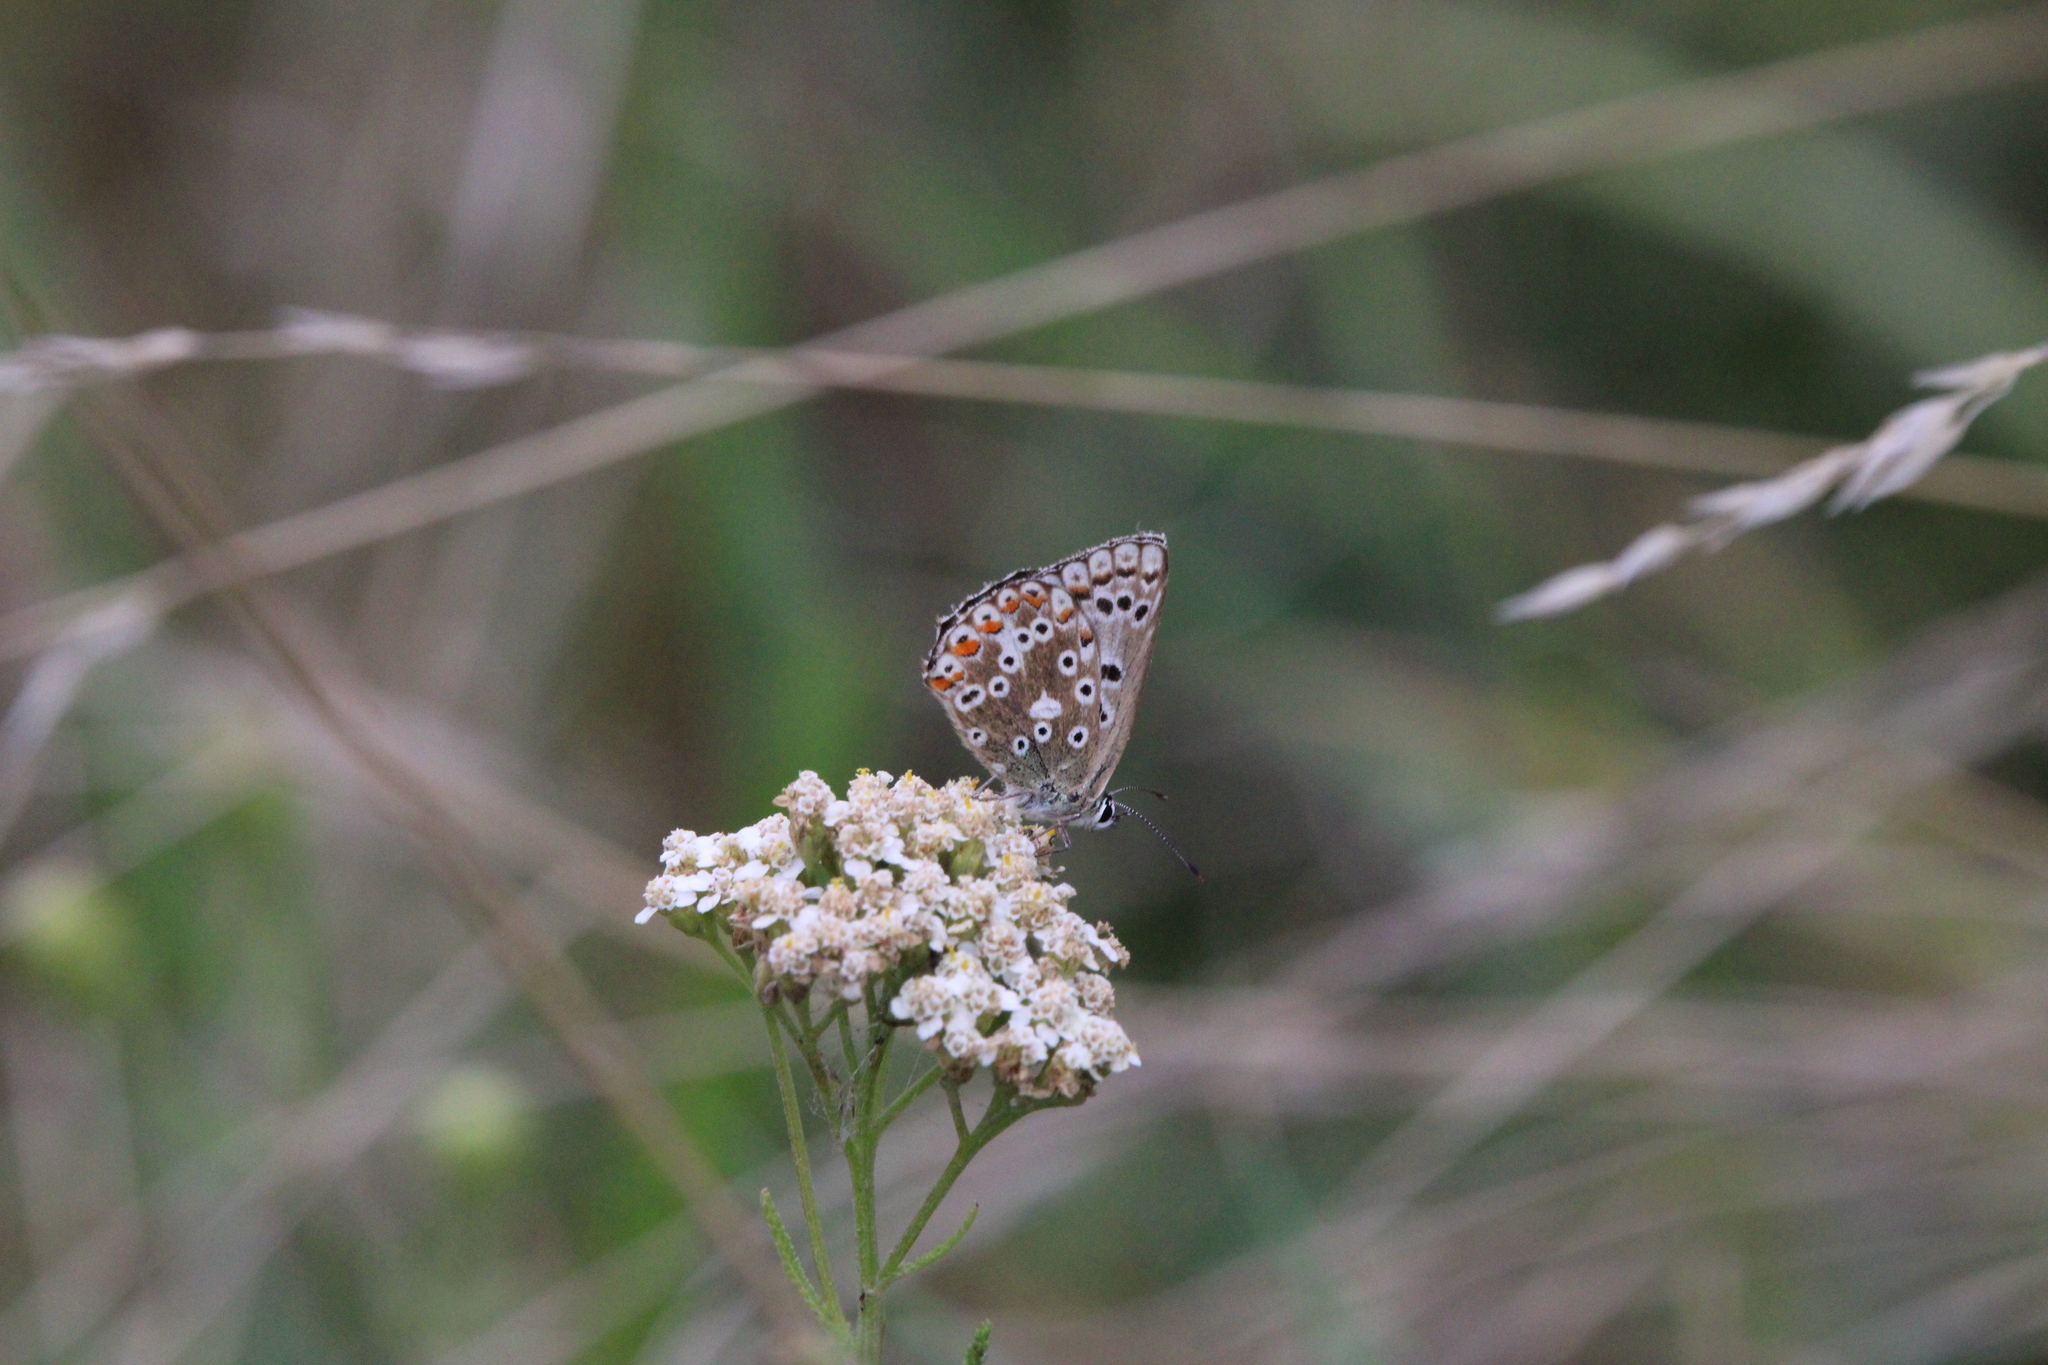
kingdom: Animalia
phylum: Arthropoda
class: Insecta
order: Lepidoptera
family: Lycaenidae
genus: Lysandra
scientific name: Lysandra coridon
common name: Chalkhill blue
